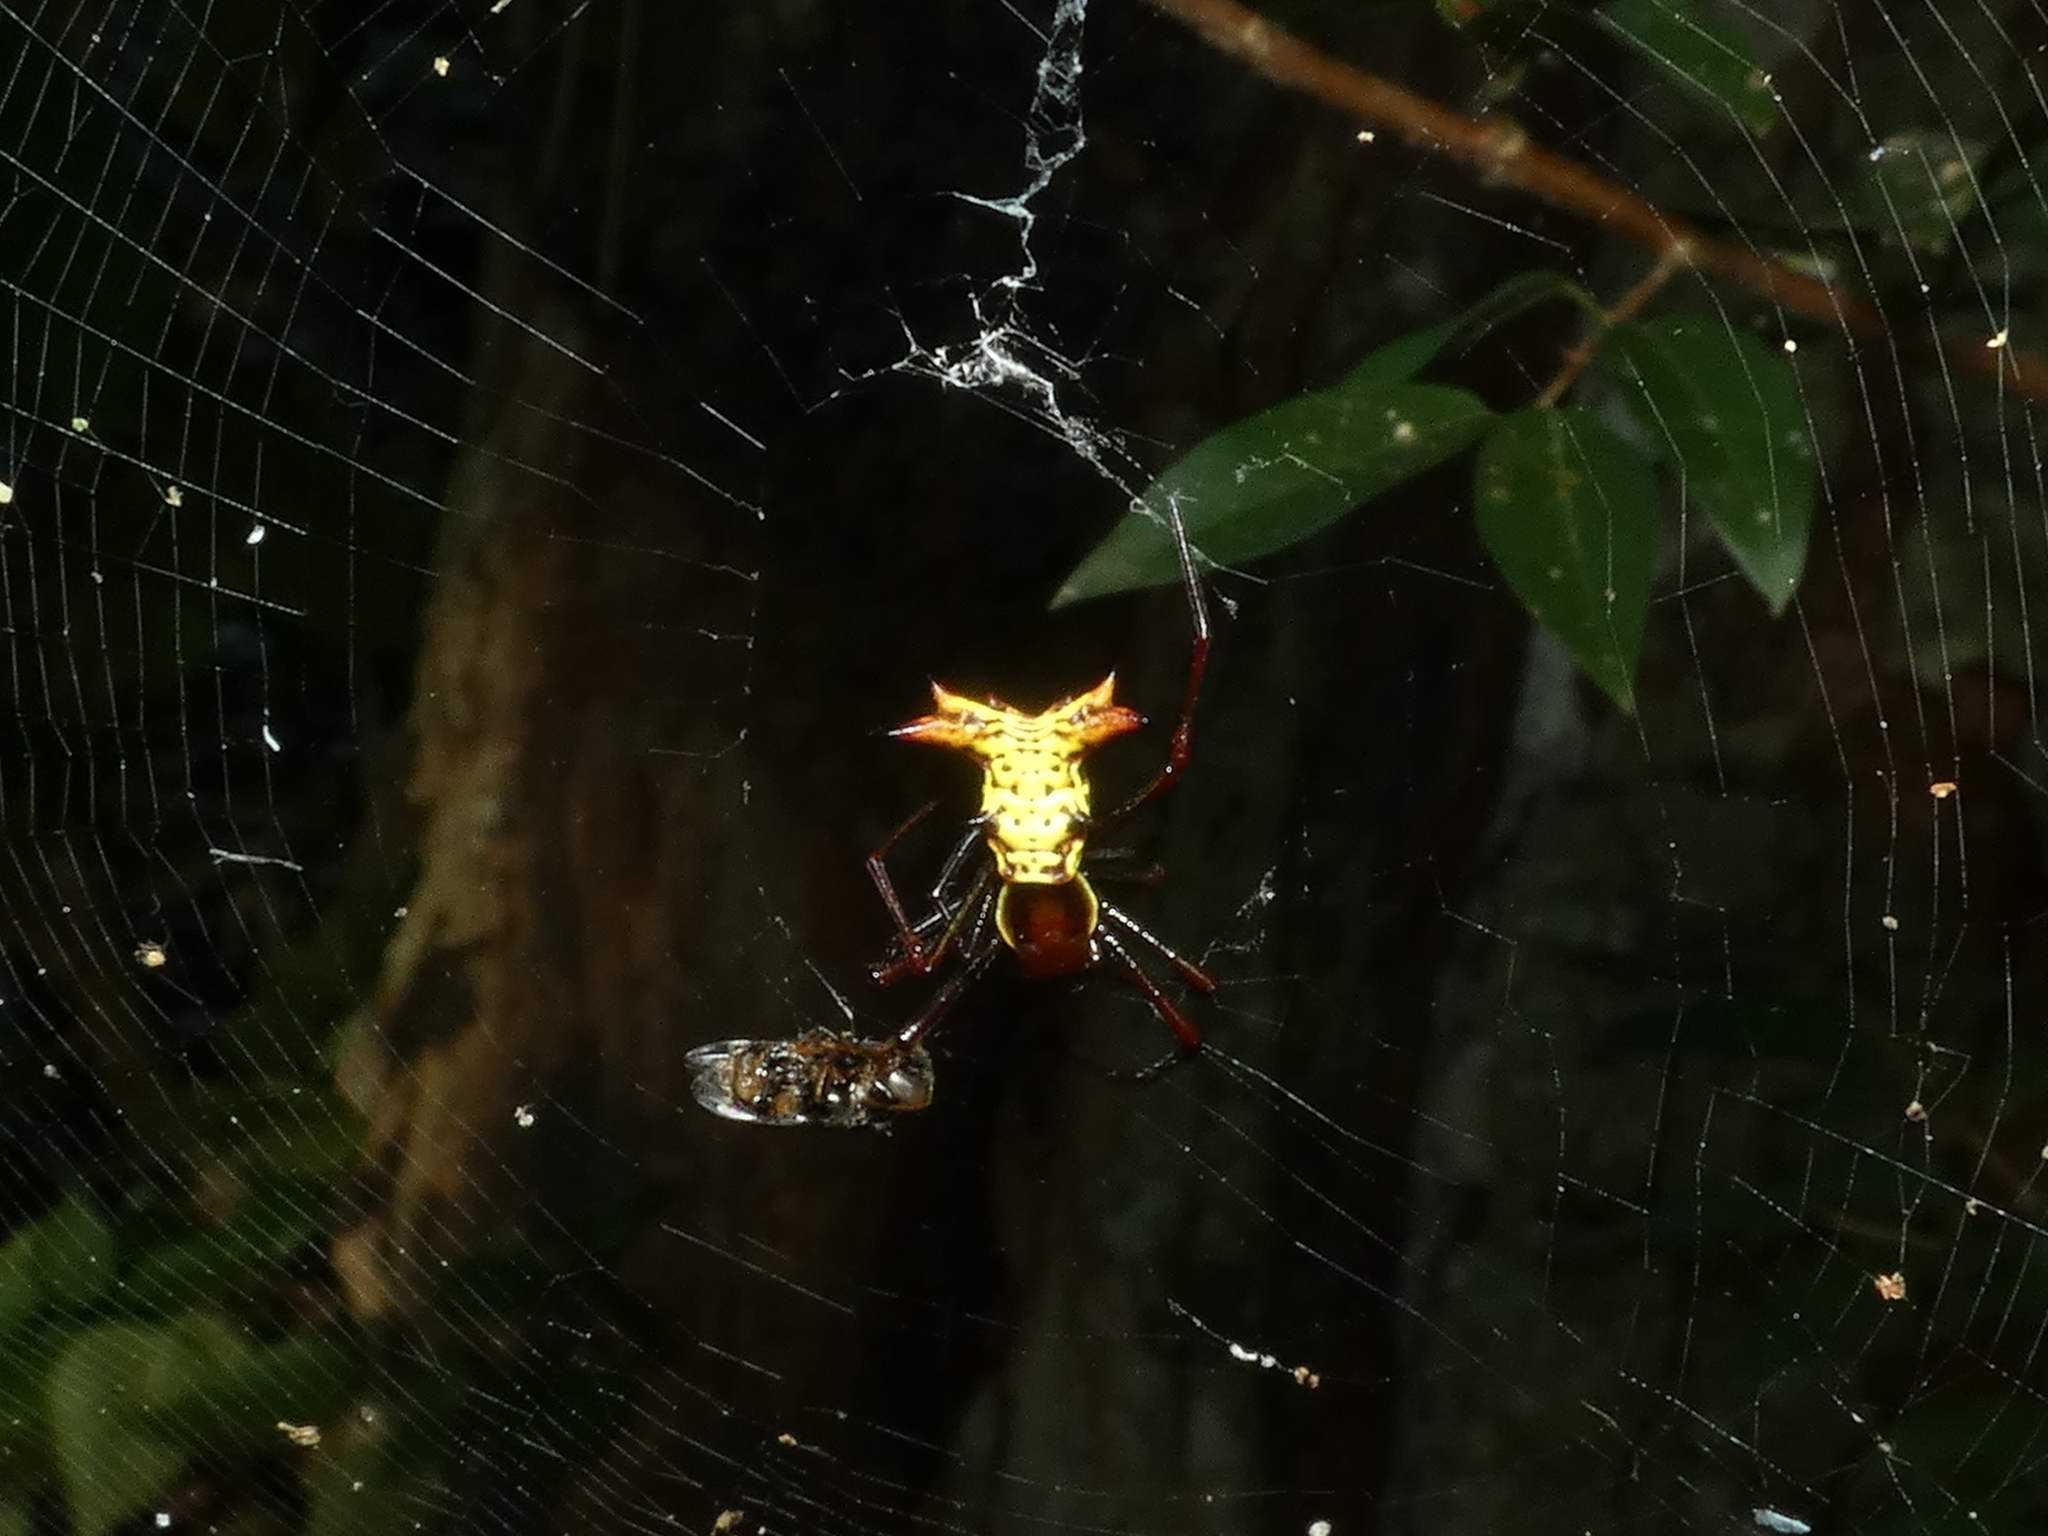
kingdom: Animalia
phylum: Arthropoda
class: Arachnida
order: Araneae
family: Araneidae
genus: Micrathena
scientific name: Micrathena fissispina
